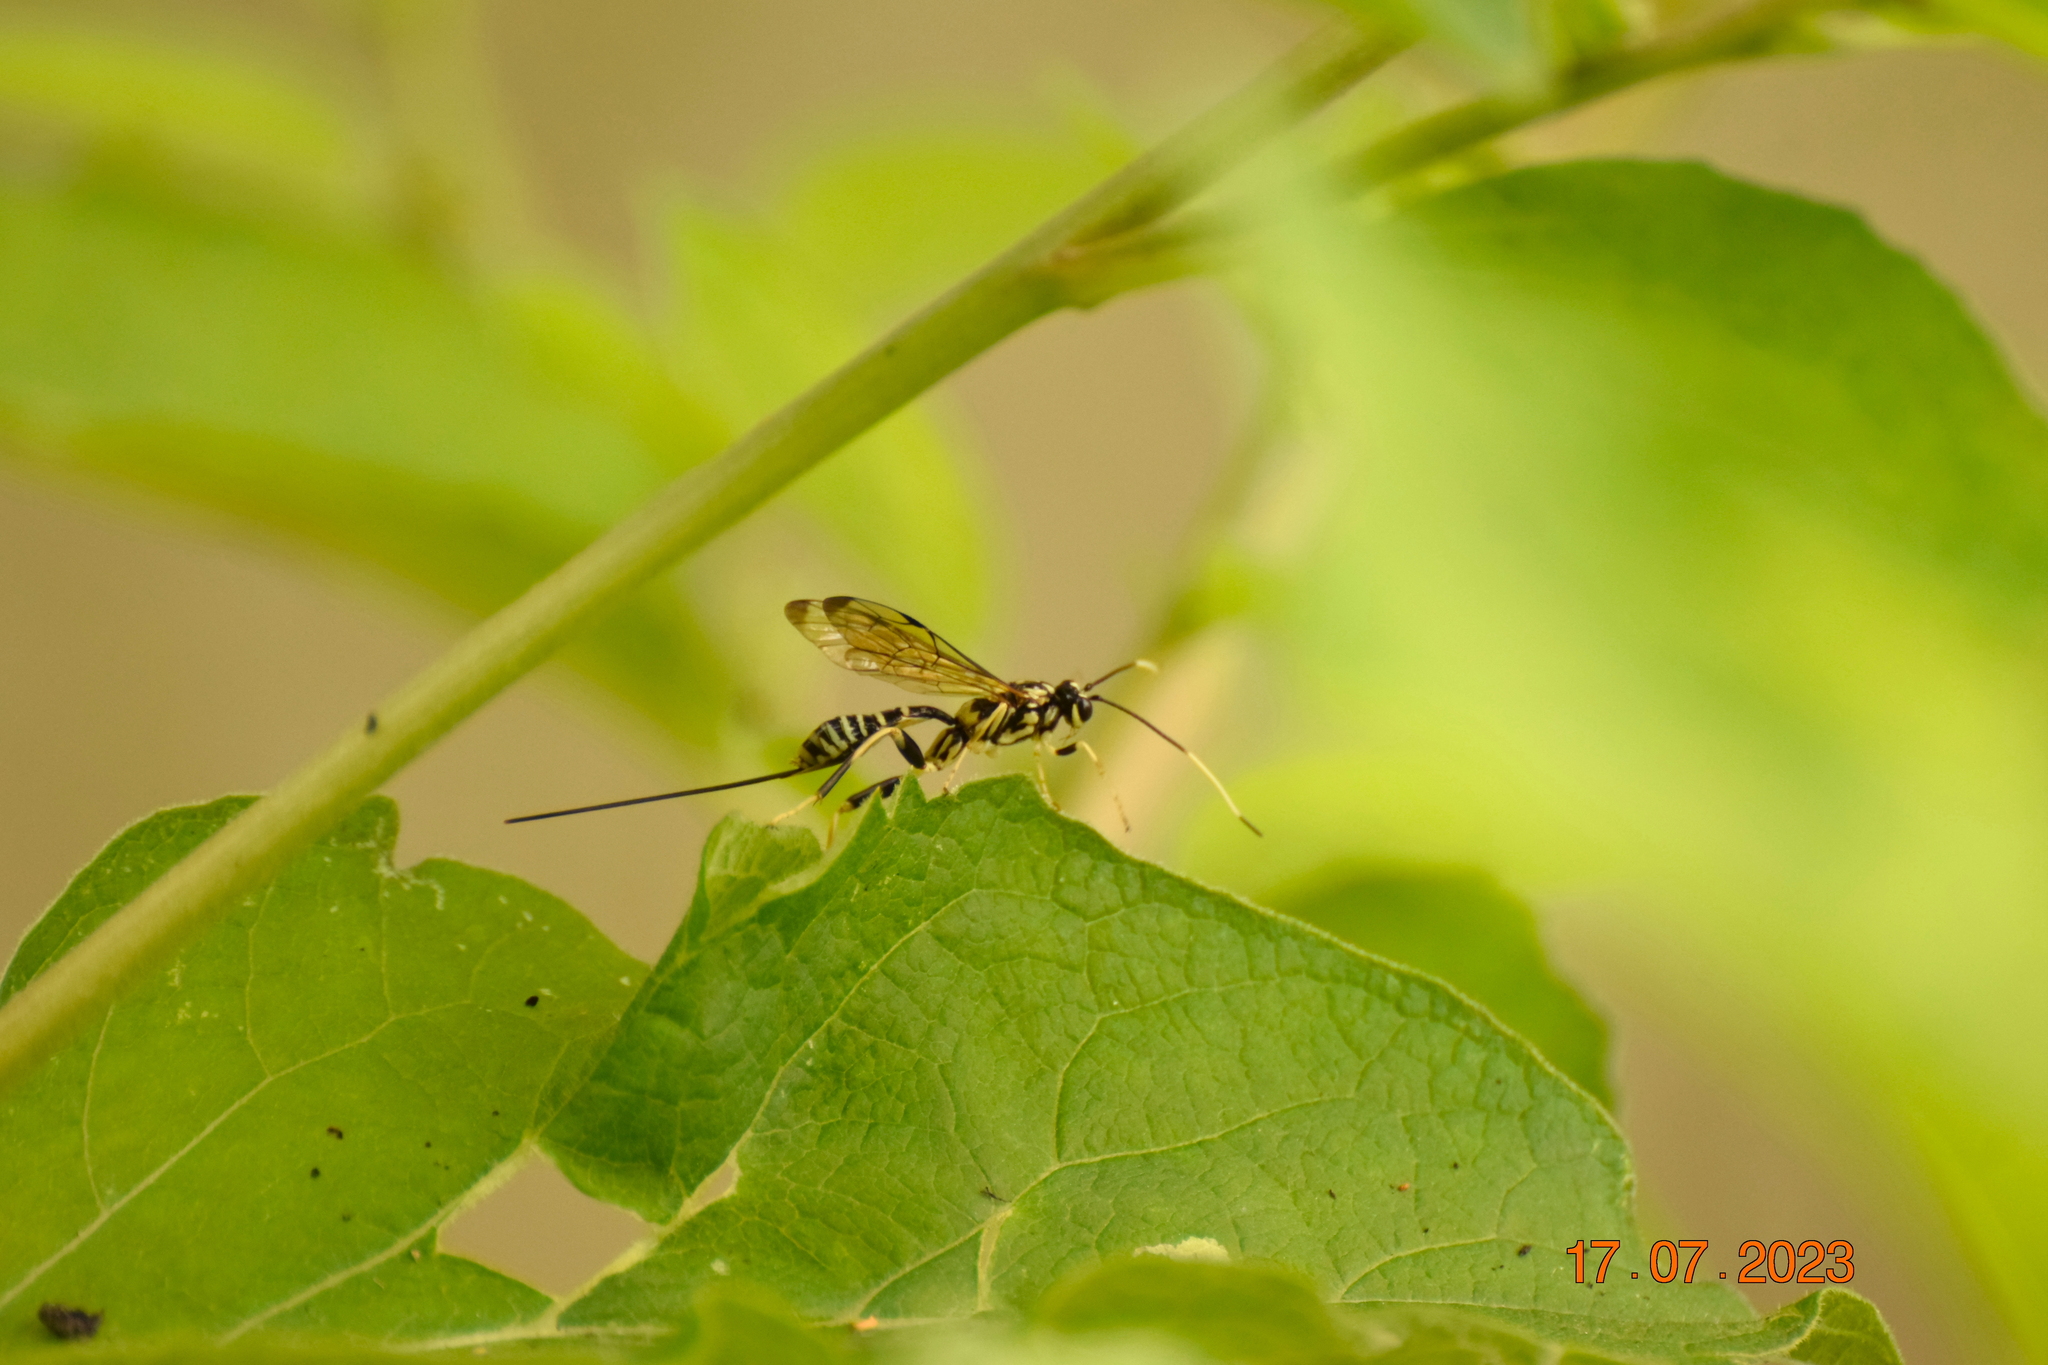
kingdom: Animalia
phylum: Arthropoda
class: Insecta
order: Hymenoptera
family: Ichneumonidae
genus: Arotes
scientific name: Arotes amoenus
